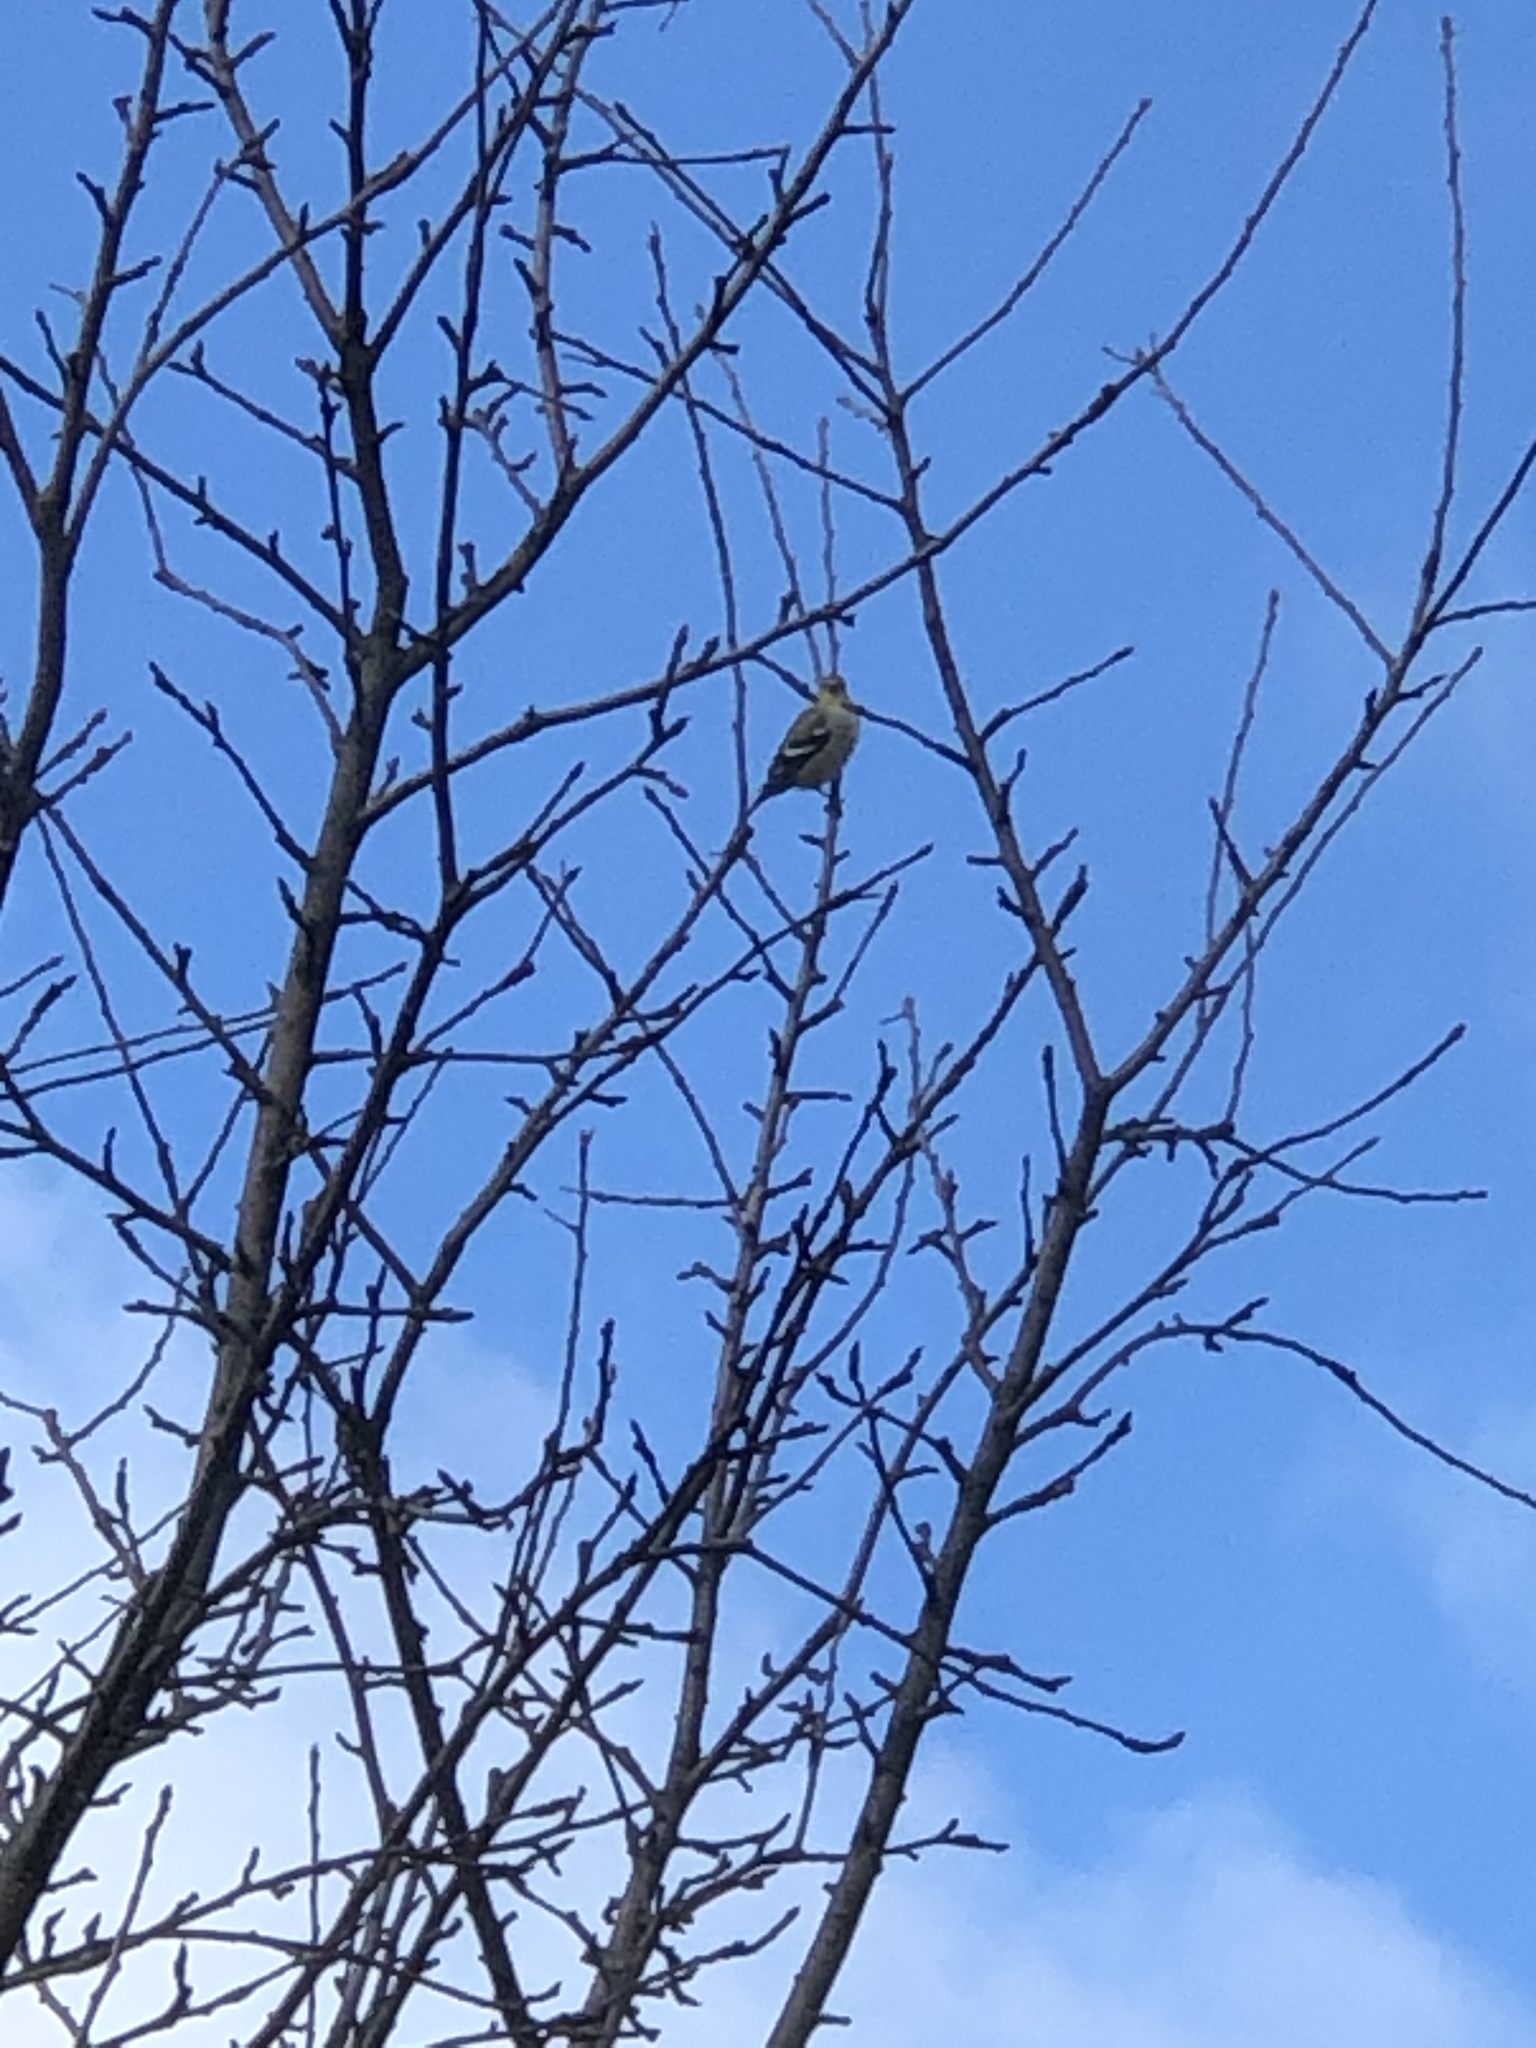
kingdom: Animalia
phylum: Chordata
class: Aves
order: Passeriformes
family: Fringillidae
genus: Spinus
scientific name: Spinus tristis
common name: American goldfinch
